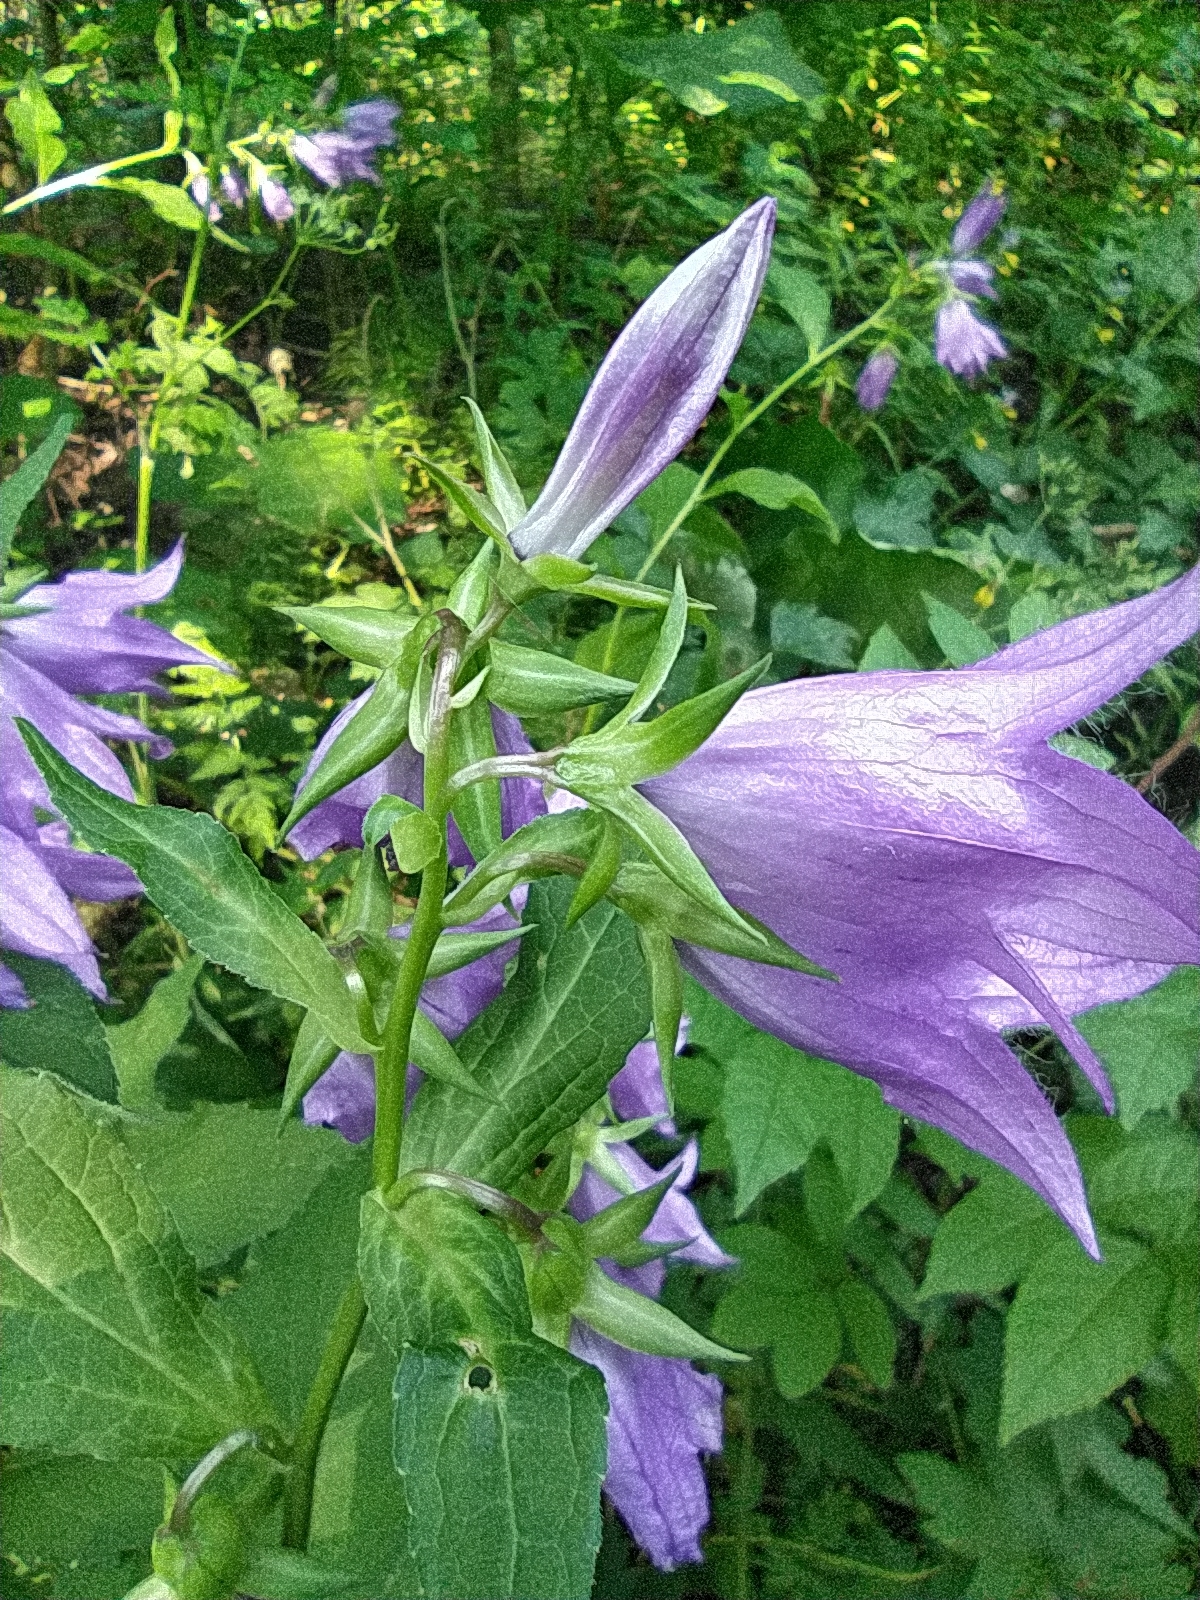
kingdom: Plantae
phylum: Tracheophyta
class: Magnoliopsida
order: Asterales
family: Campanulaceae
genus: Campanula
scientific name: Campanula latifolia
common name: Giant bellflower
